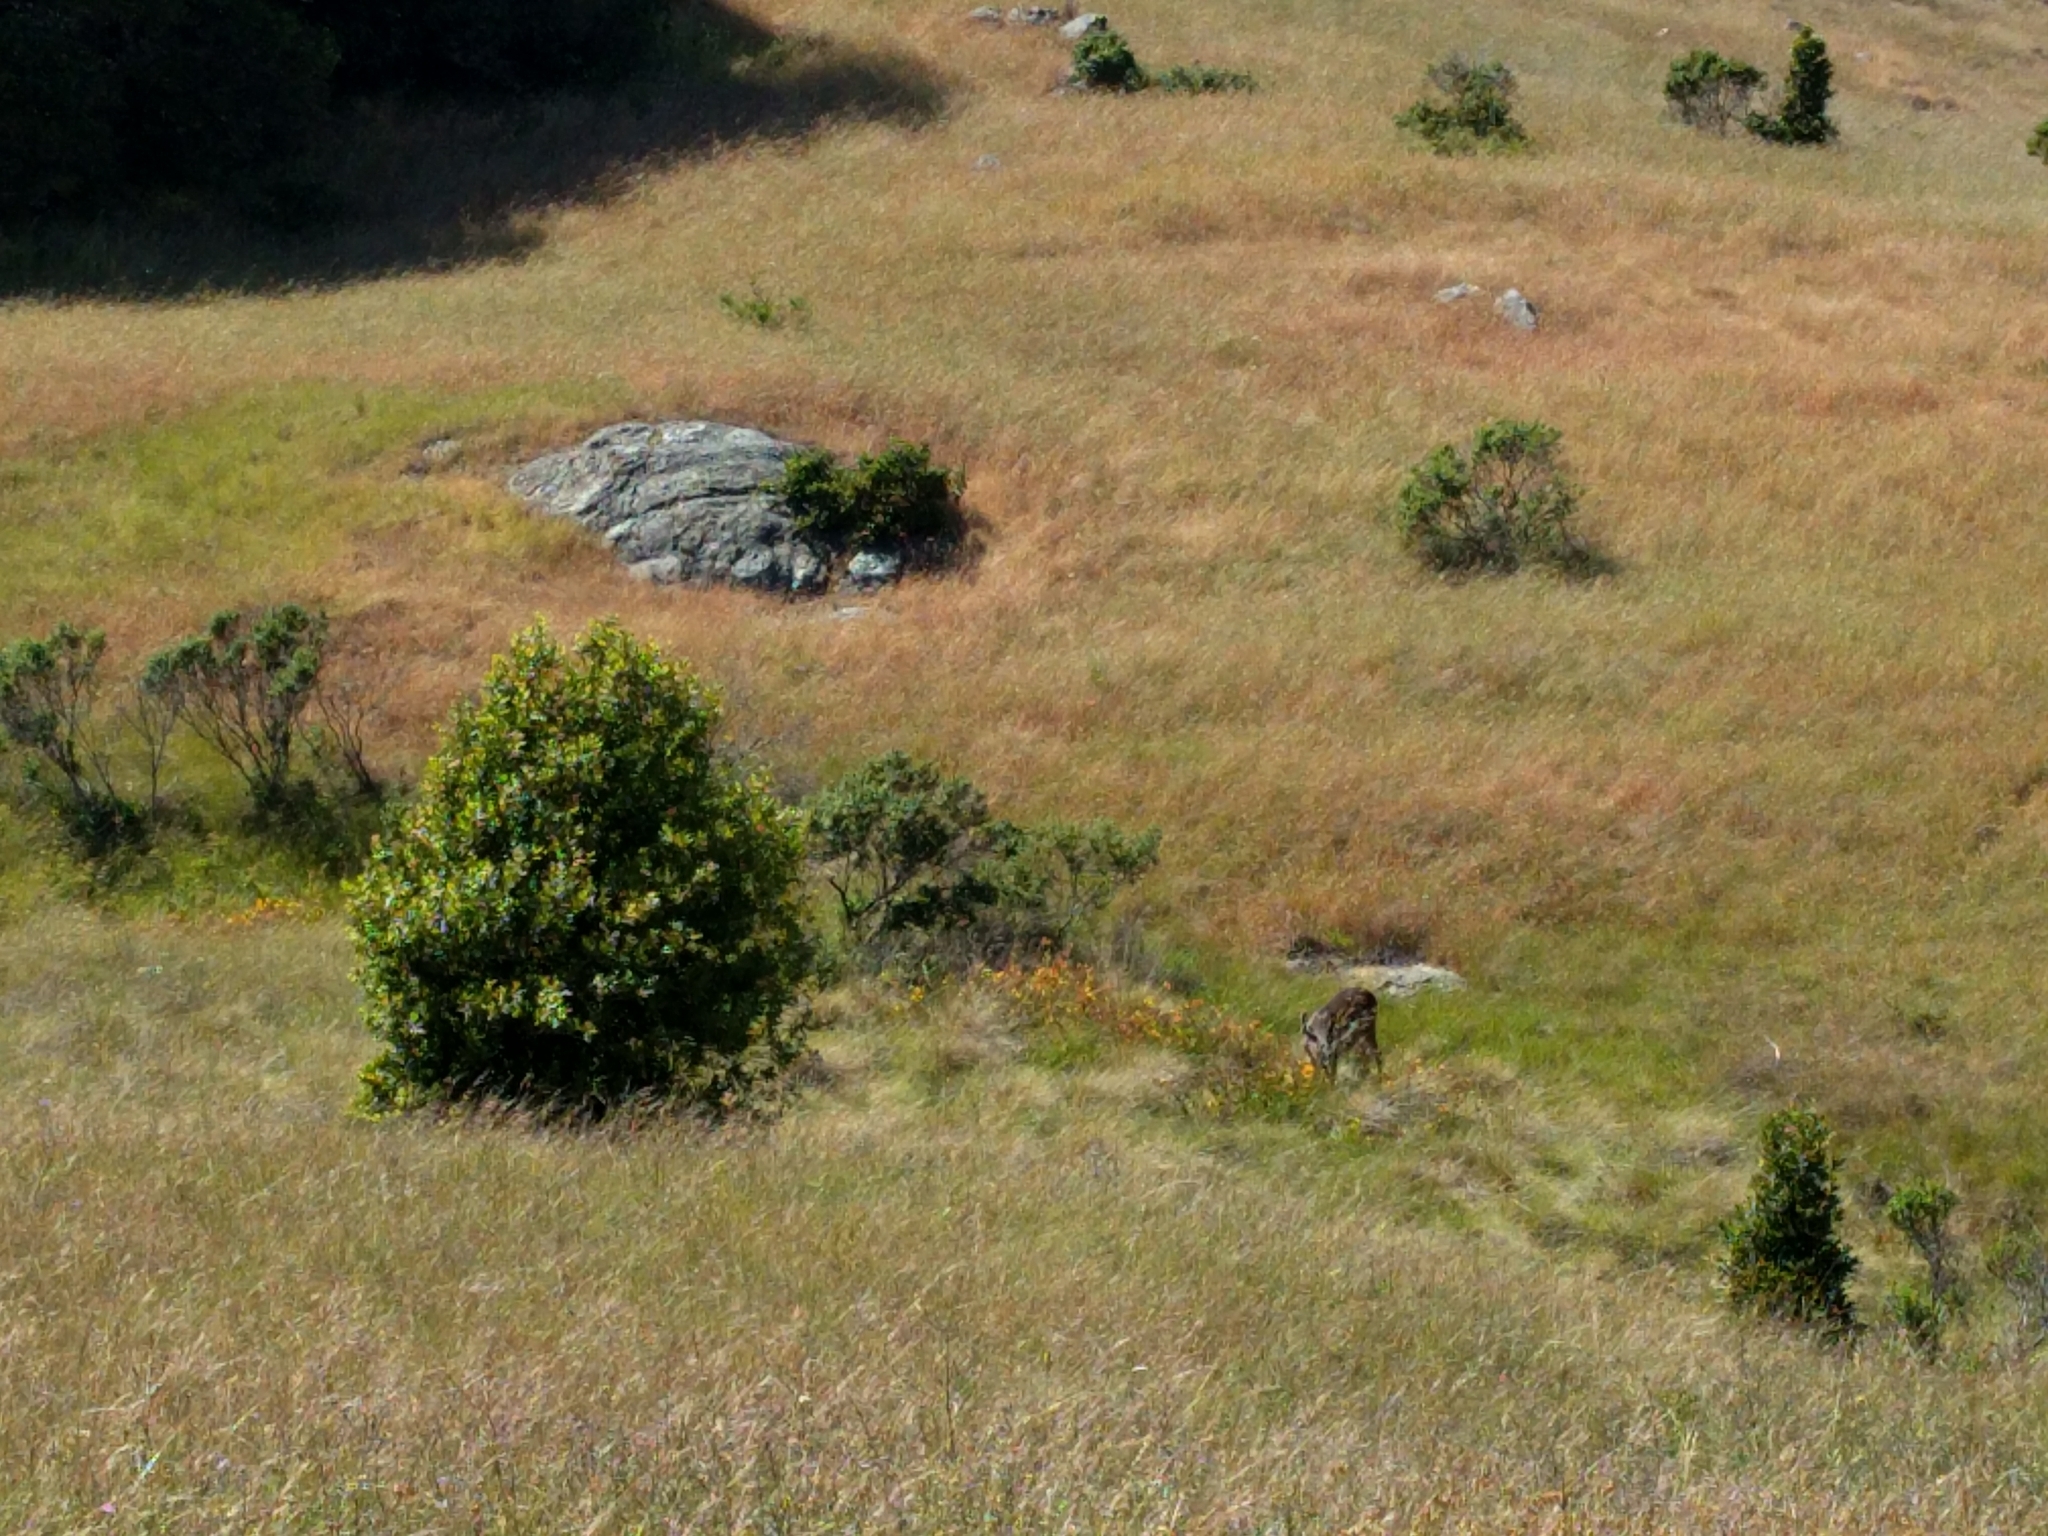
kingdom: Animalia
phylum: Chordata
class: Mammalia
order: Artiodactyla
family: Cervidae
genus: Odocoileus
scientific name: Odocoileus hemionus
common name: Mule deer
